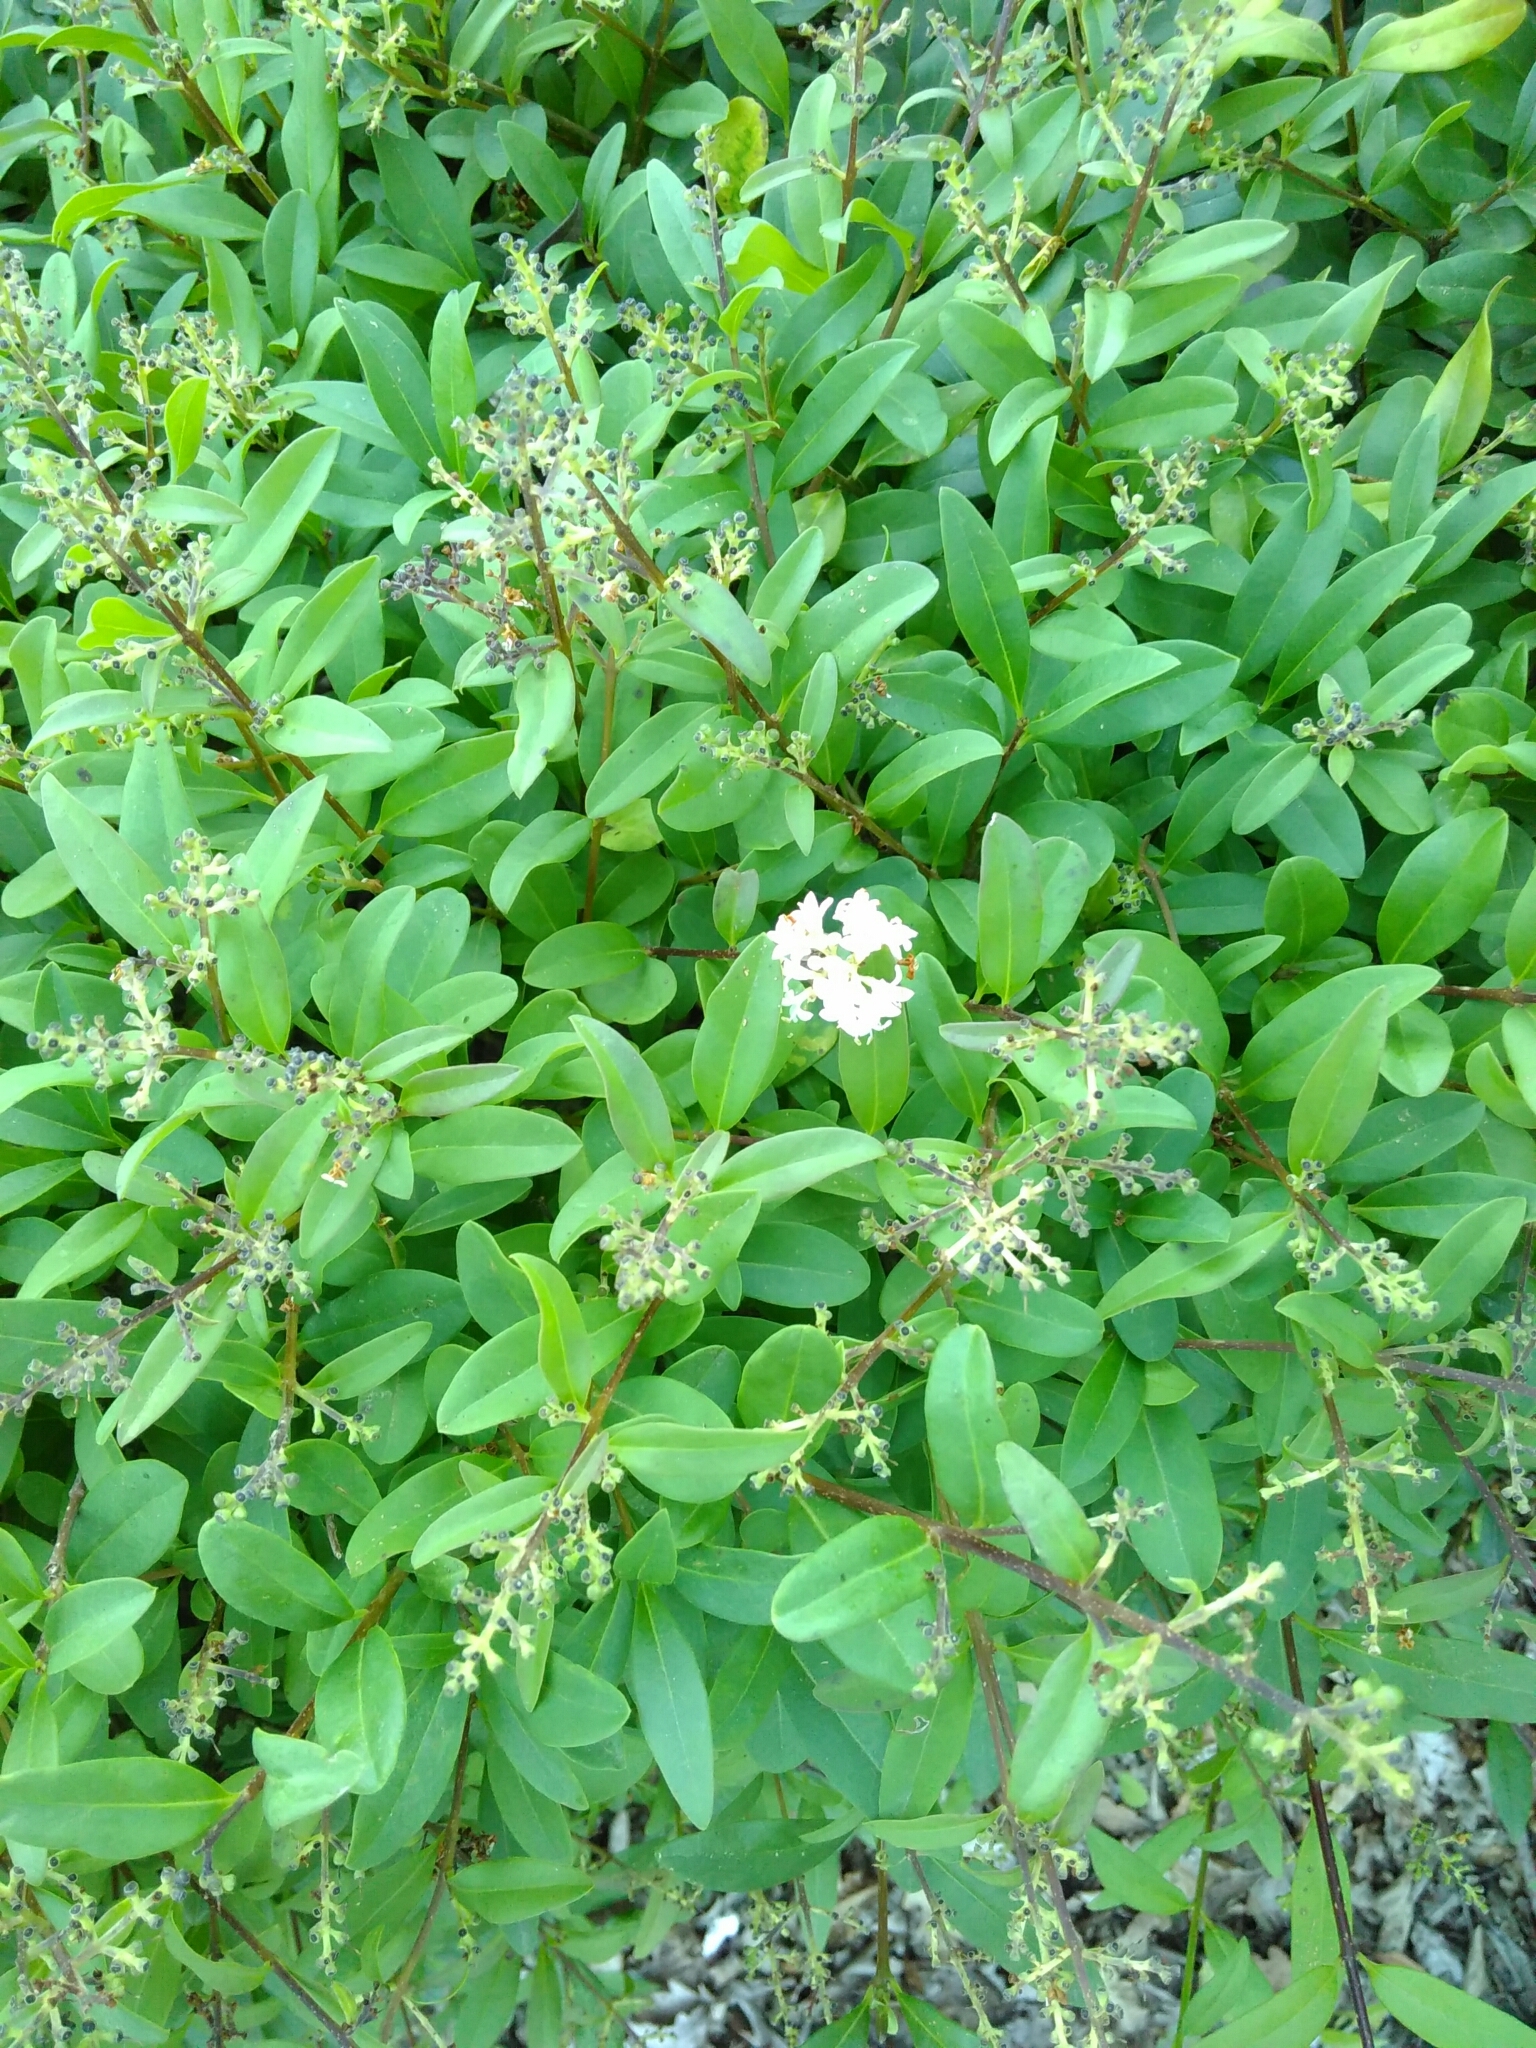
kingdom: Plantae
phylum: Tracheophyta
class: Magnoliopsida
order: Lamiales
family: Oleaceae
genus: Ligustrum
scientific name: Ligustrum vulgare
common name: Wild privet
